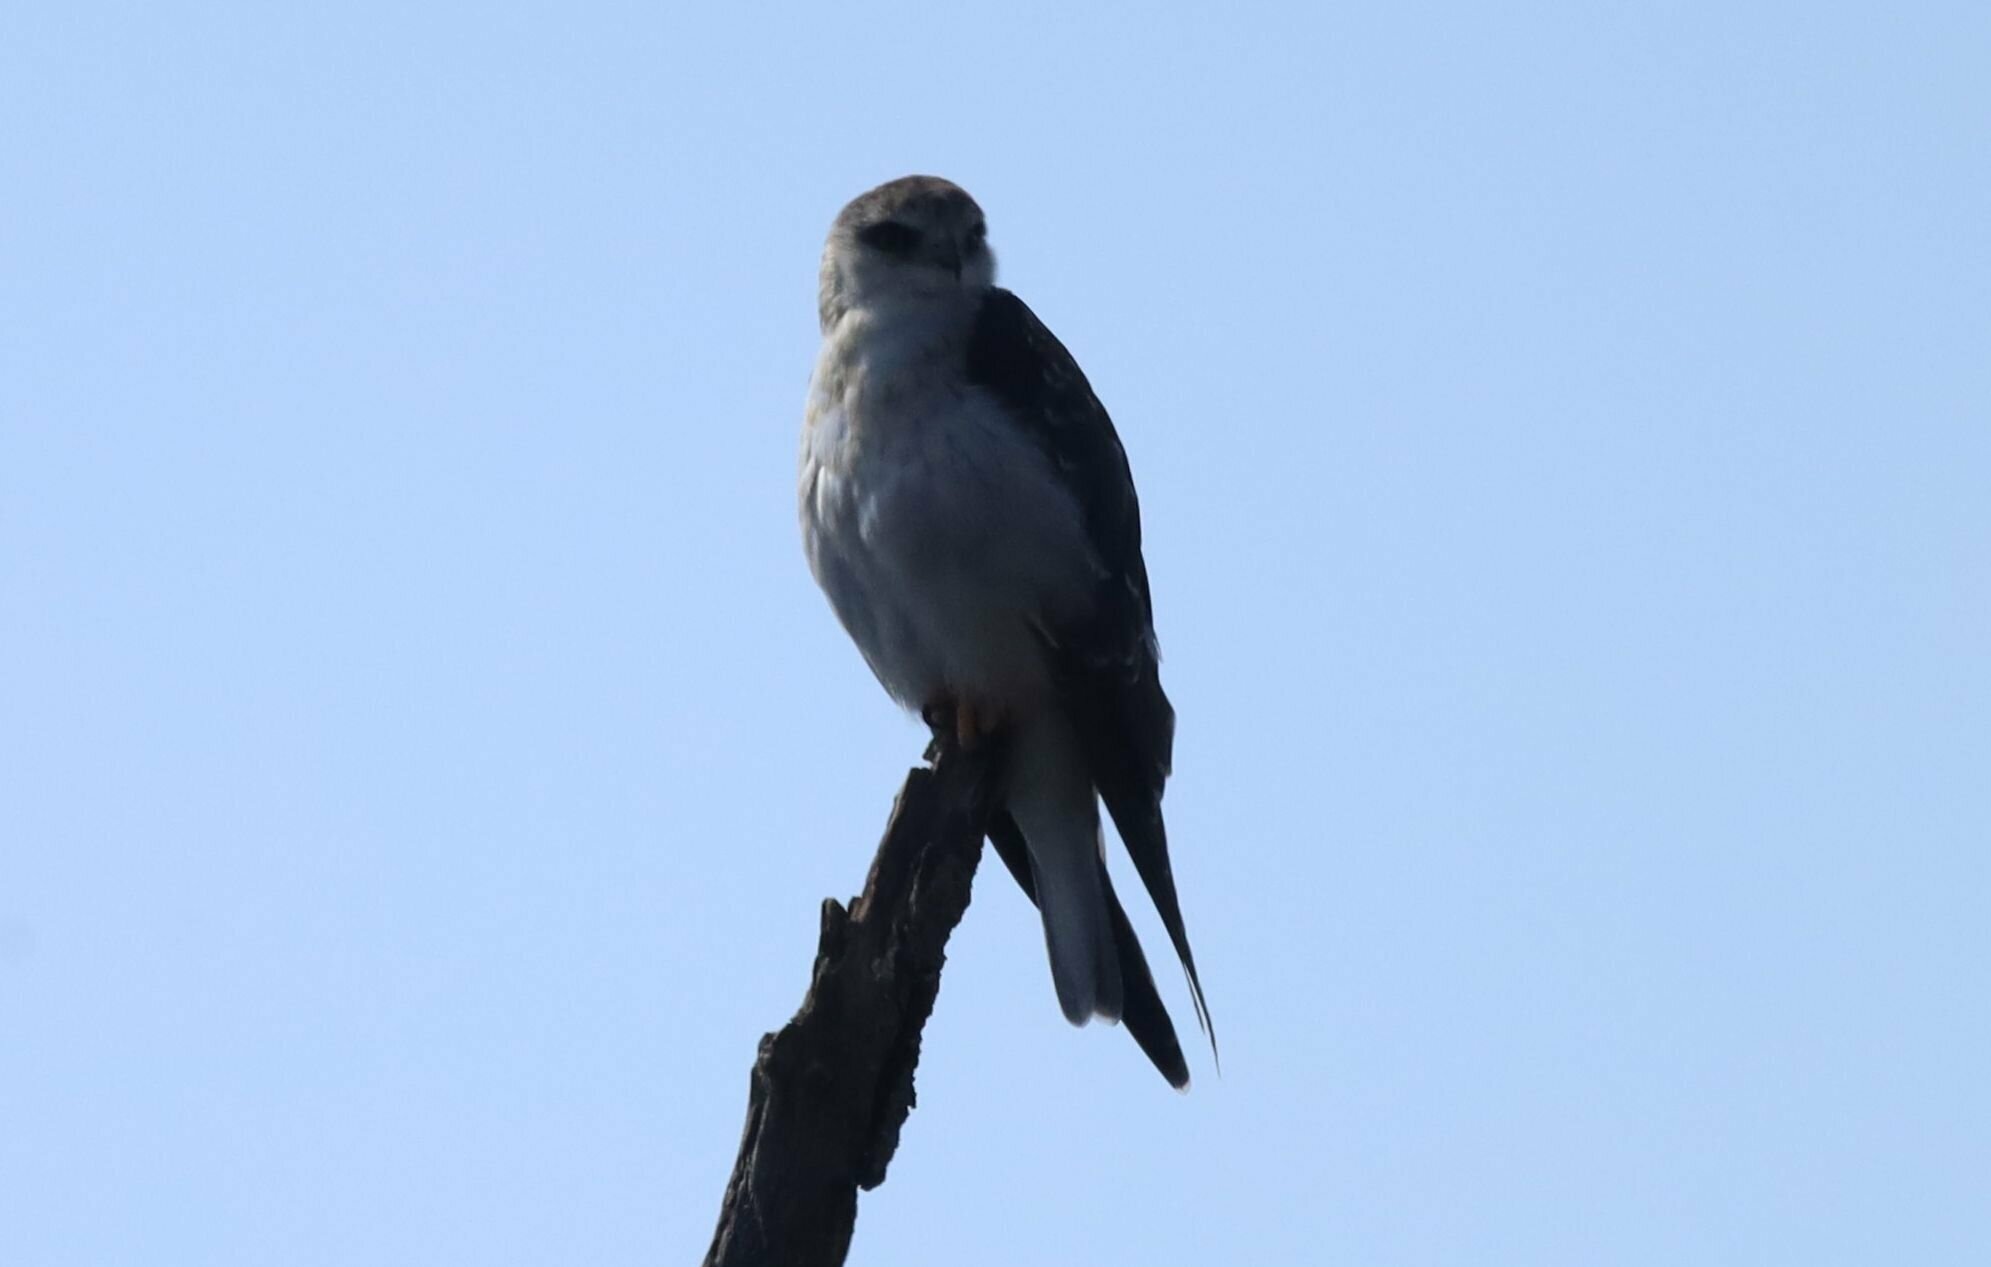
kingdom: Animalia
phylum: Chordata
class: Aves
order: Accipitriformes
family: Accipitridae
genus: Elanus
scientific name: Elanus caeruleus
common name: Black-winged kite
